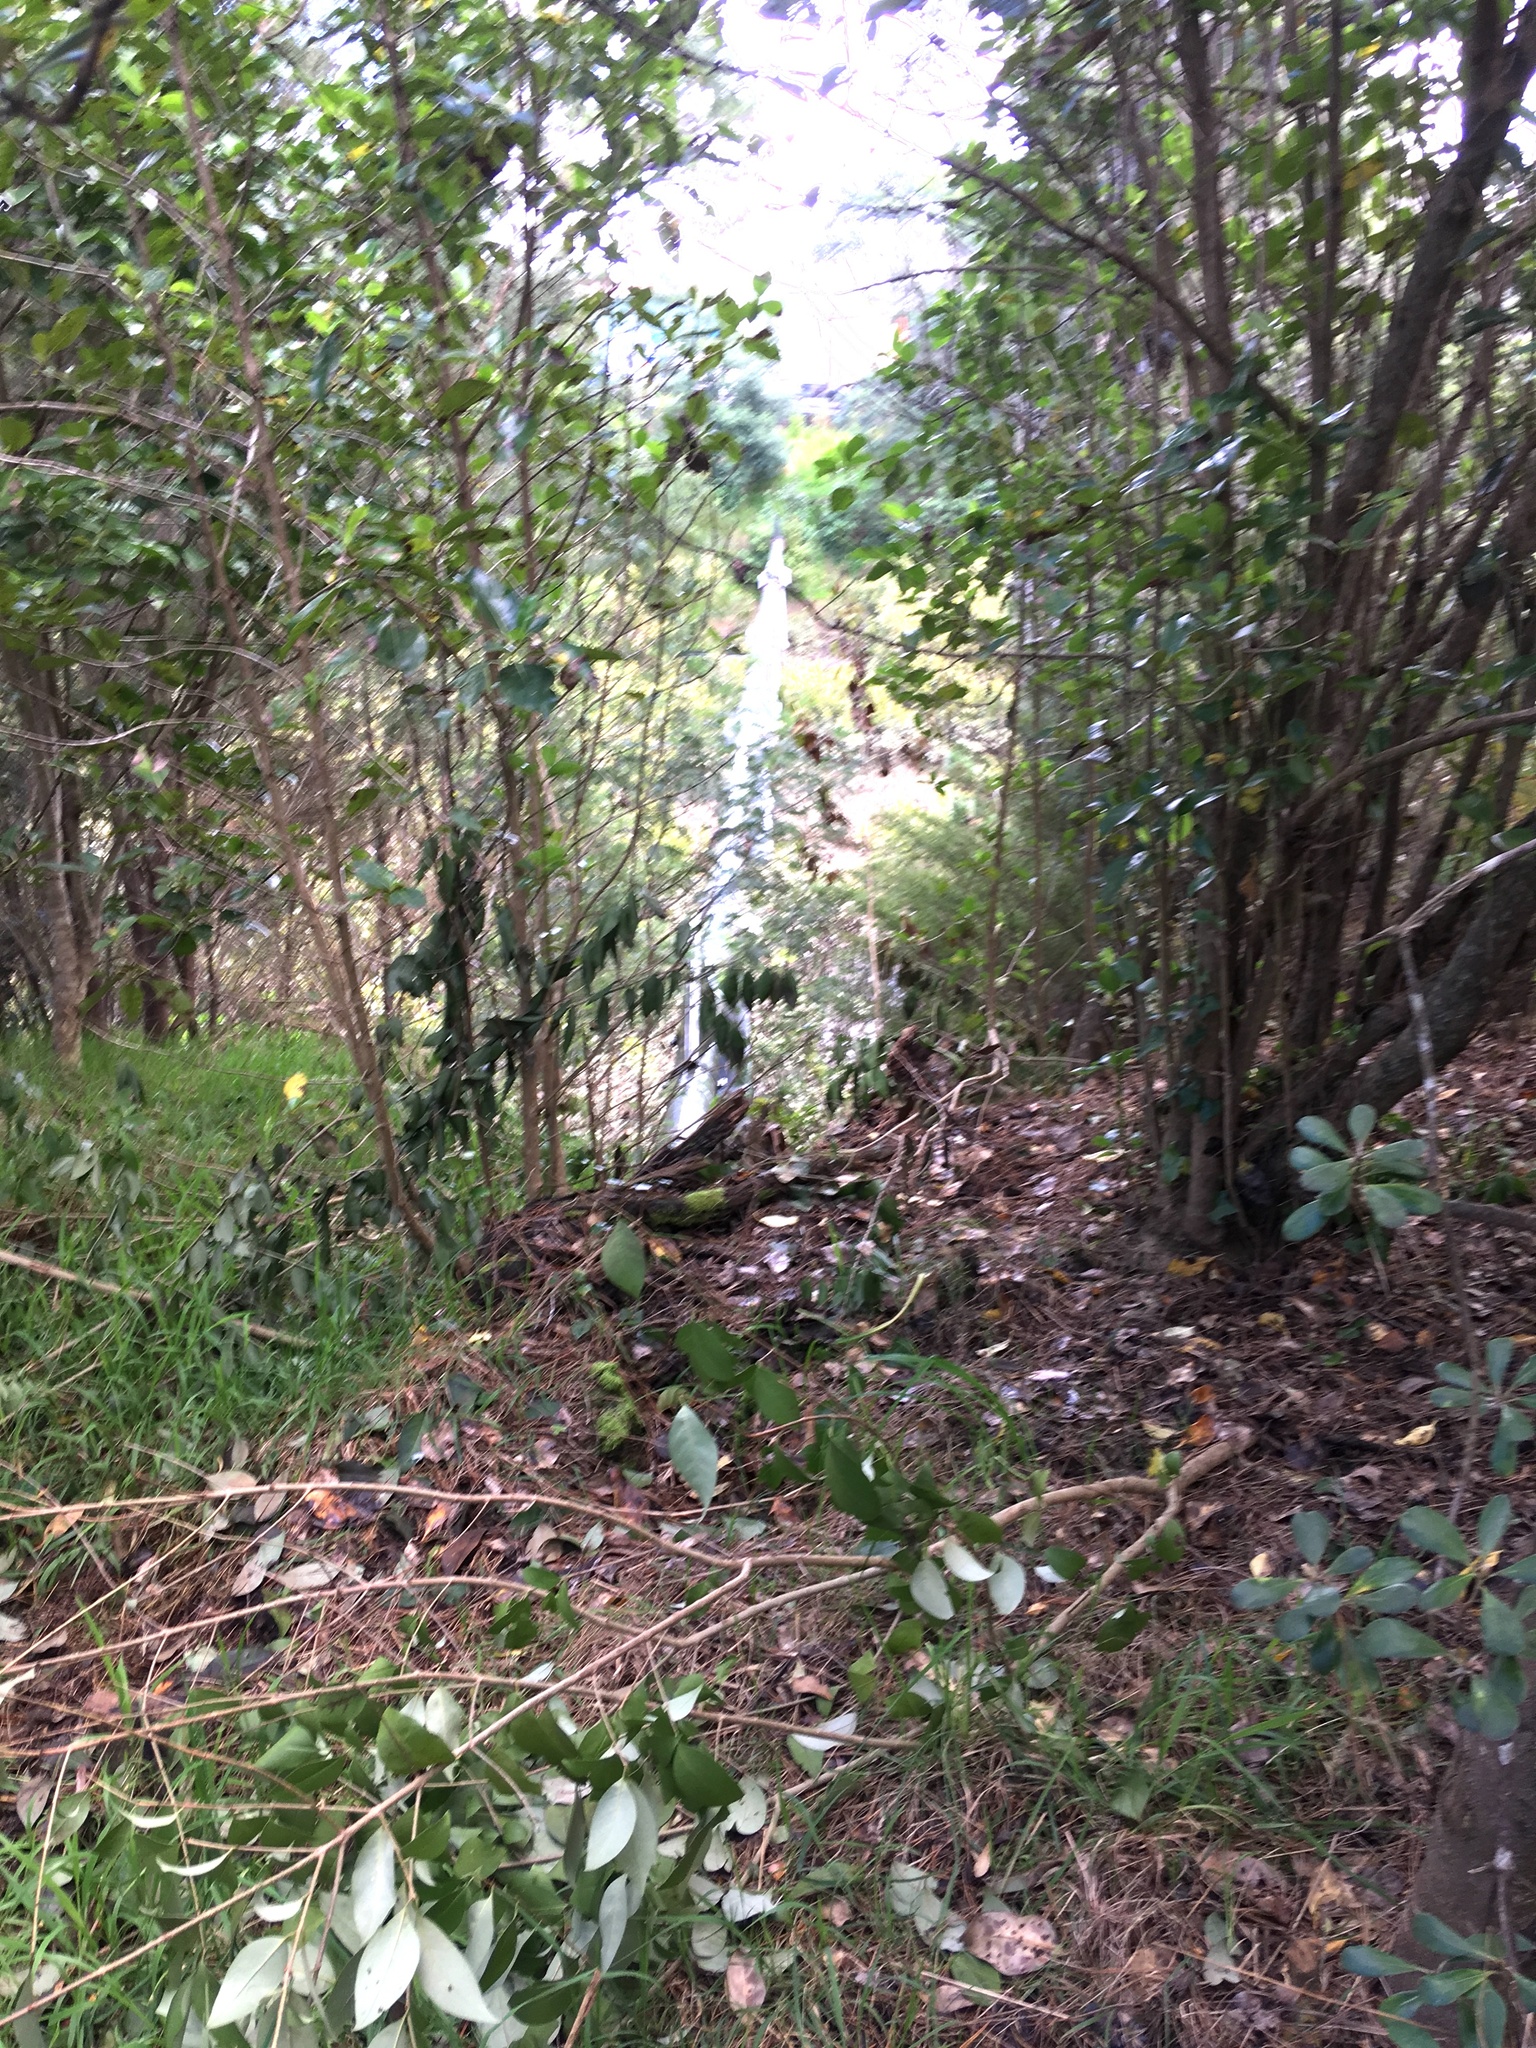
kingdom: Plantae
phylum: Tracheophyta
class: Magnoliopsida
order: Lamiales
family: Oleaceae
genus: Ligustrum
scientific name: Ligustrum lucidum
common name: Glossy privet
